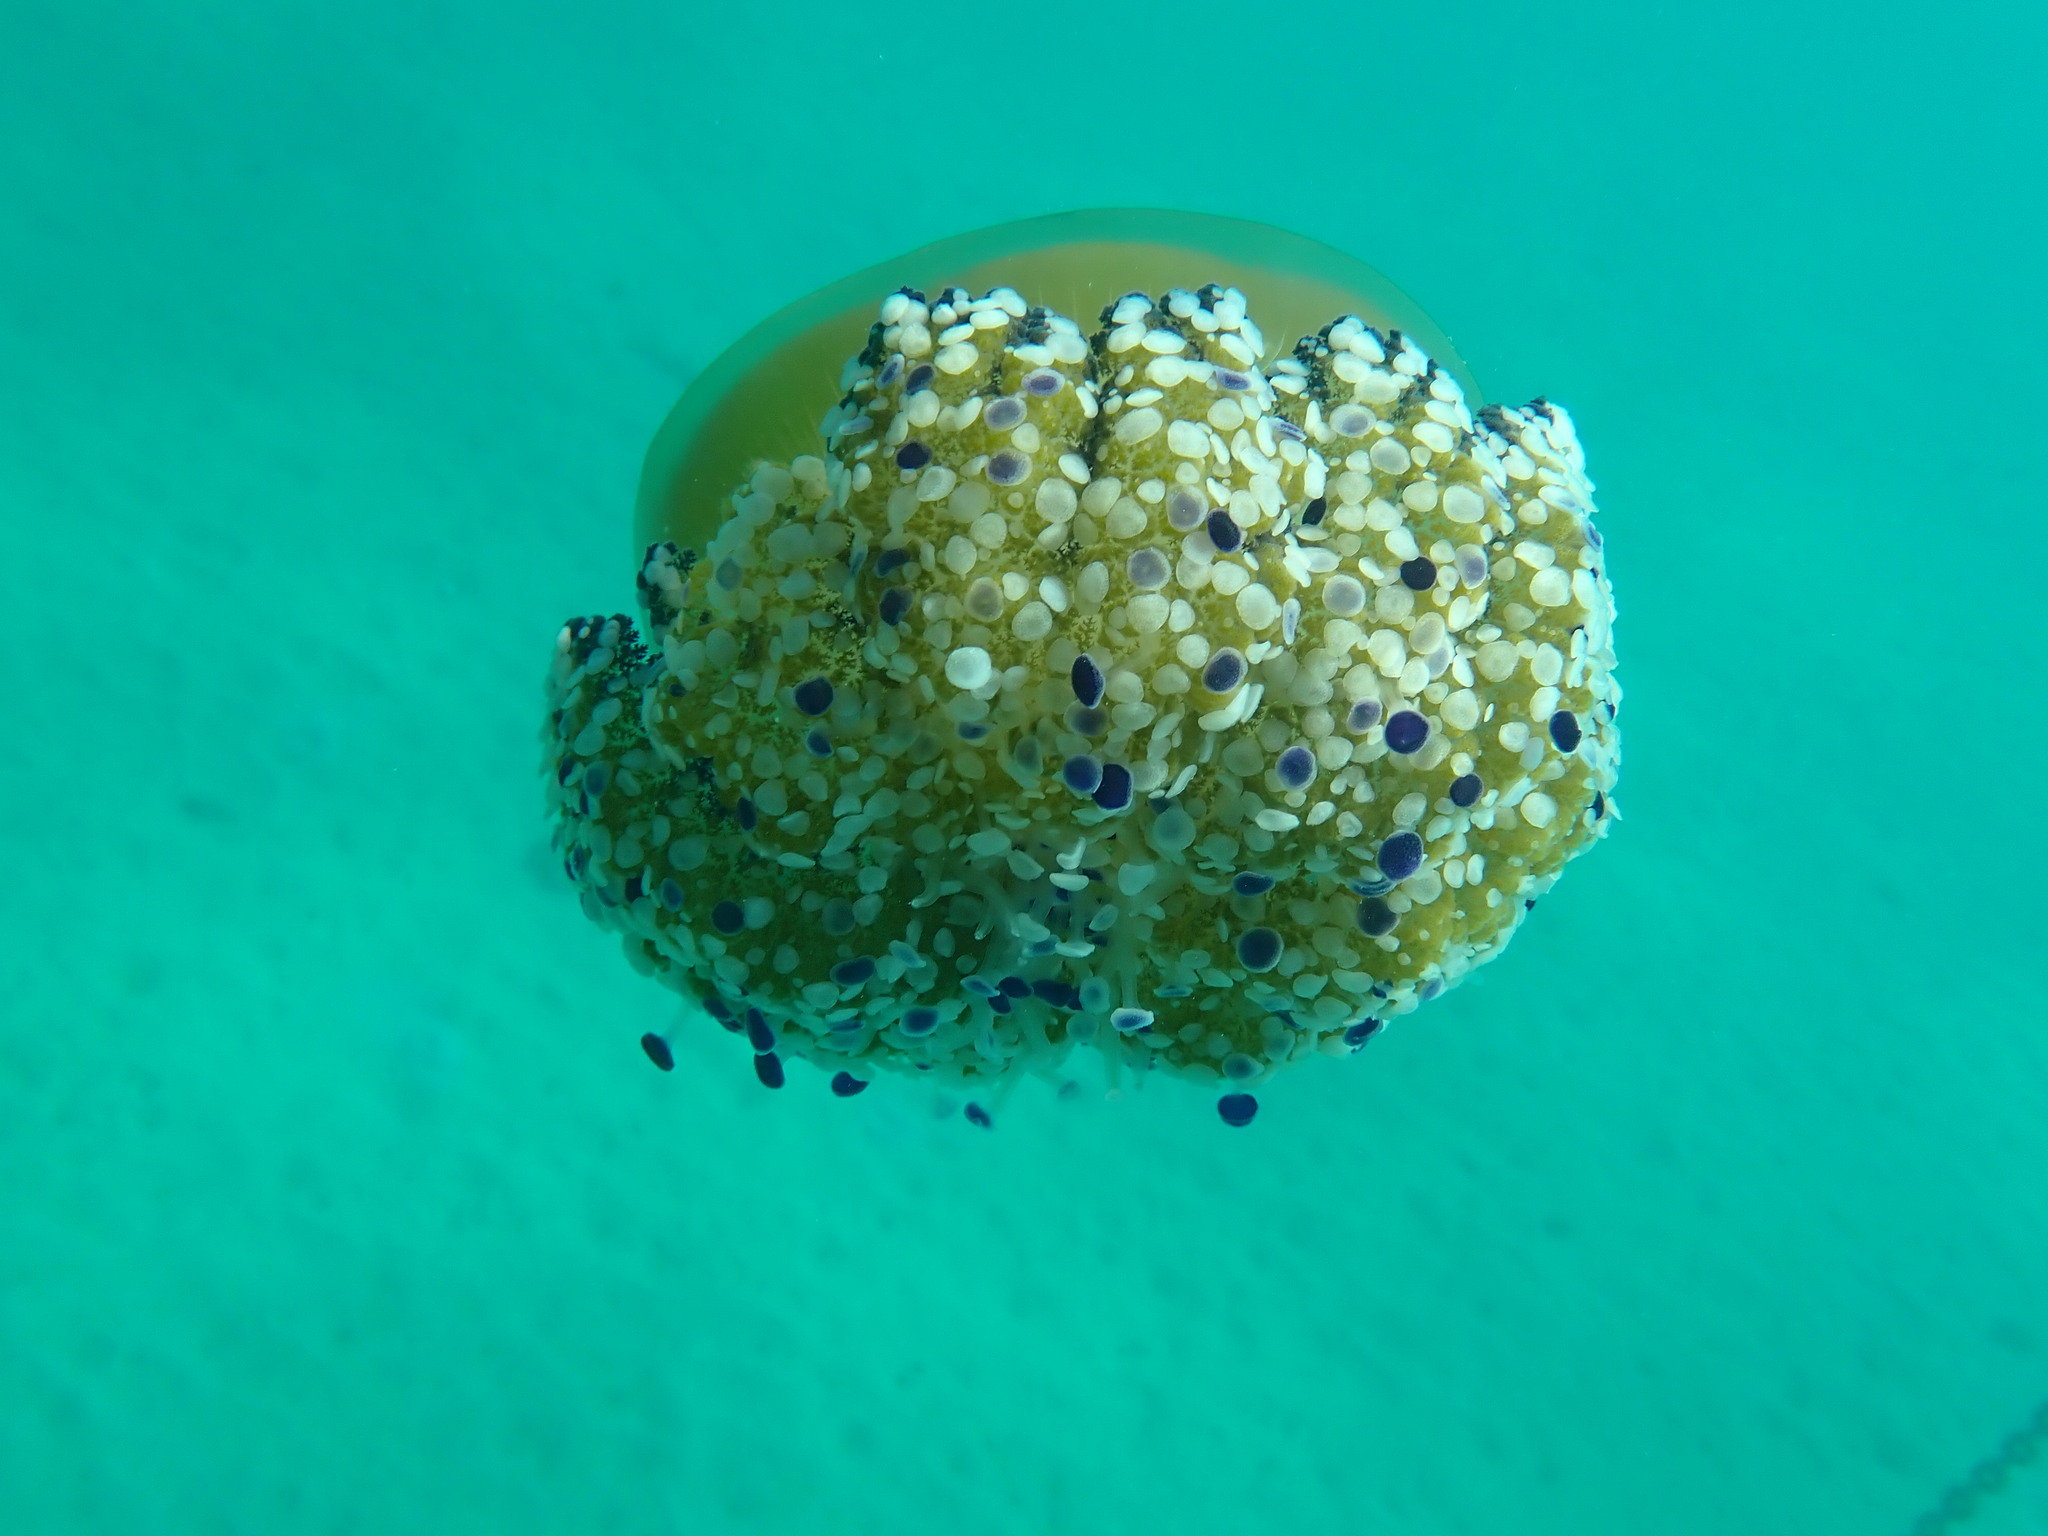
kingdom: Animalia
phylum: Cnidaria
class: Scyphozoa
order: Rhizostomeae
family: Cepheidae
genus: Cotylorhiza
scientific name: Cotylorhiza tuberculata
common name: Mediterranean jelly
